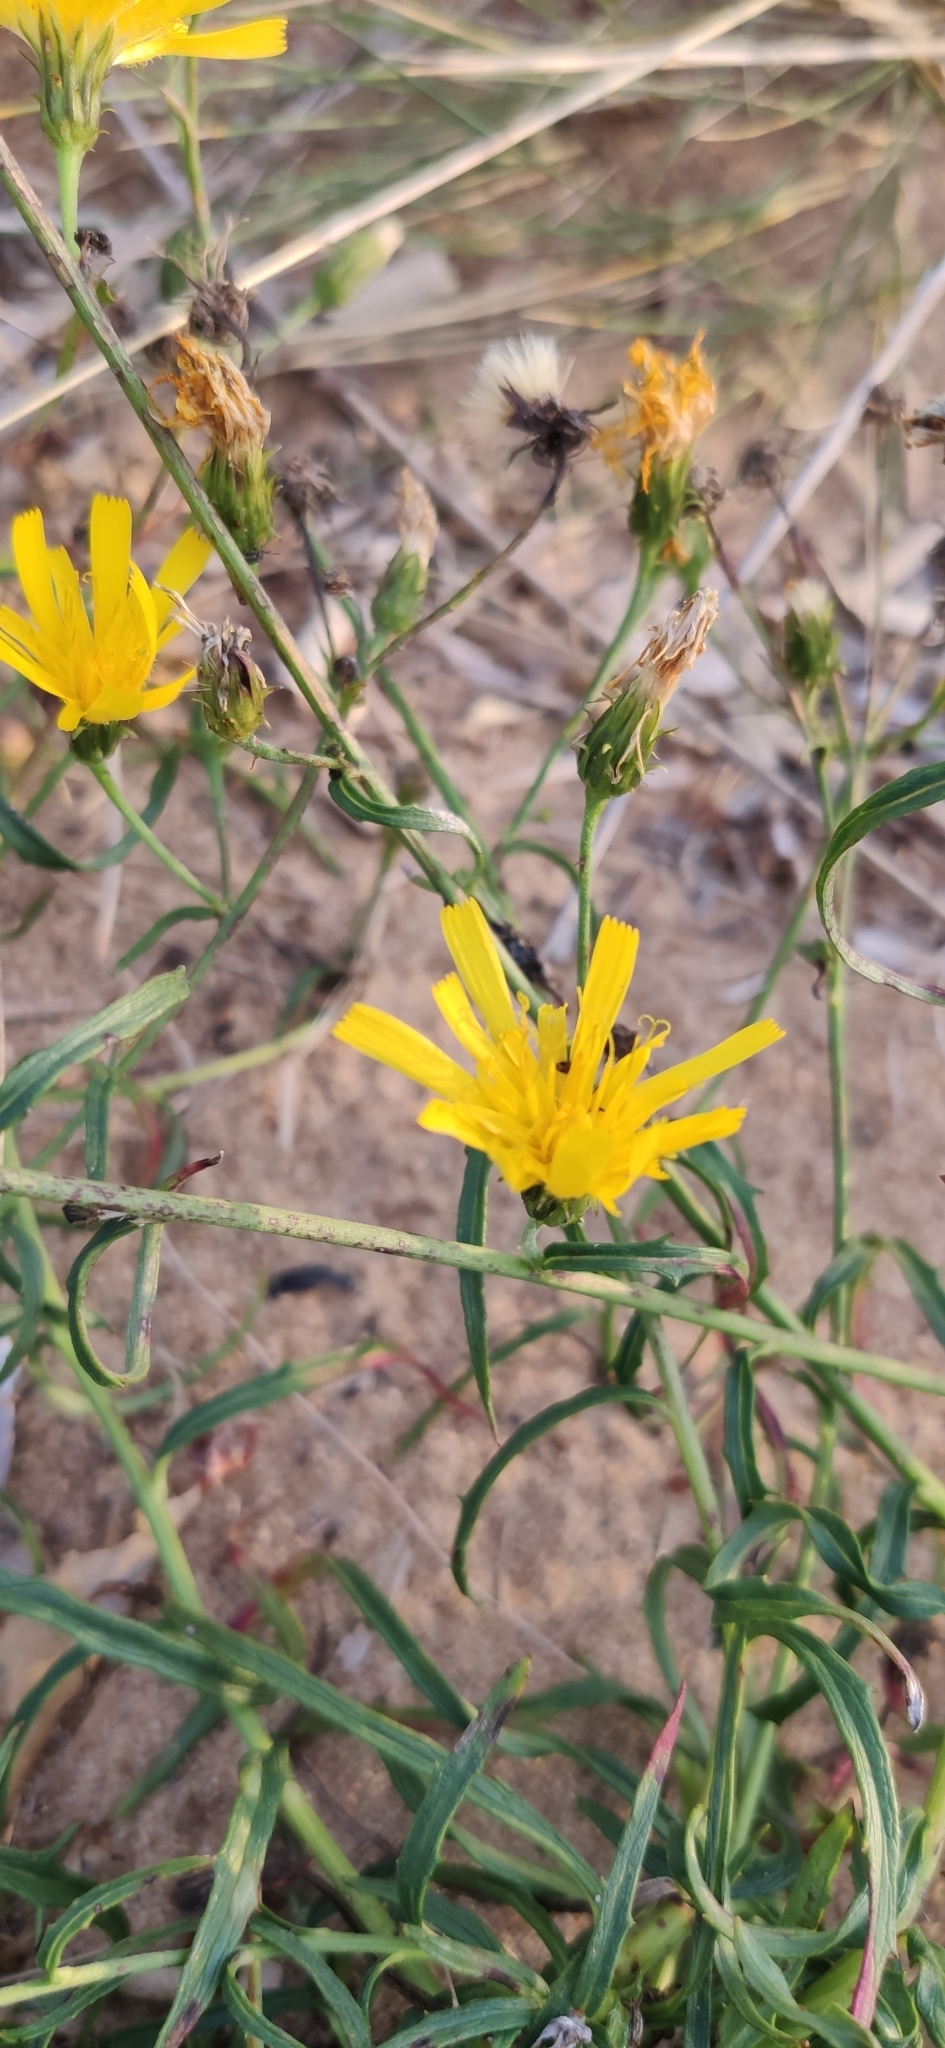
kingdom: Plantae
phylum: Tracheophyta
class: Magnoliopsida
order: Asterales
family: Asteraceae
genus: Hieracium
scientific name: Hieracium umbellatum
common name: Northern hawkweed
